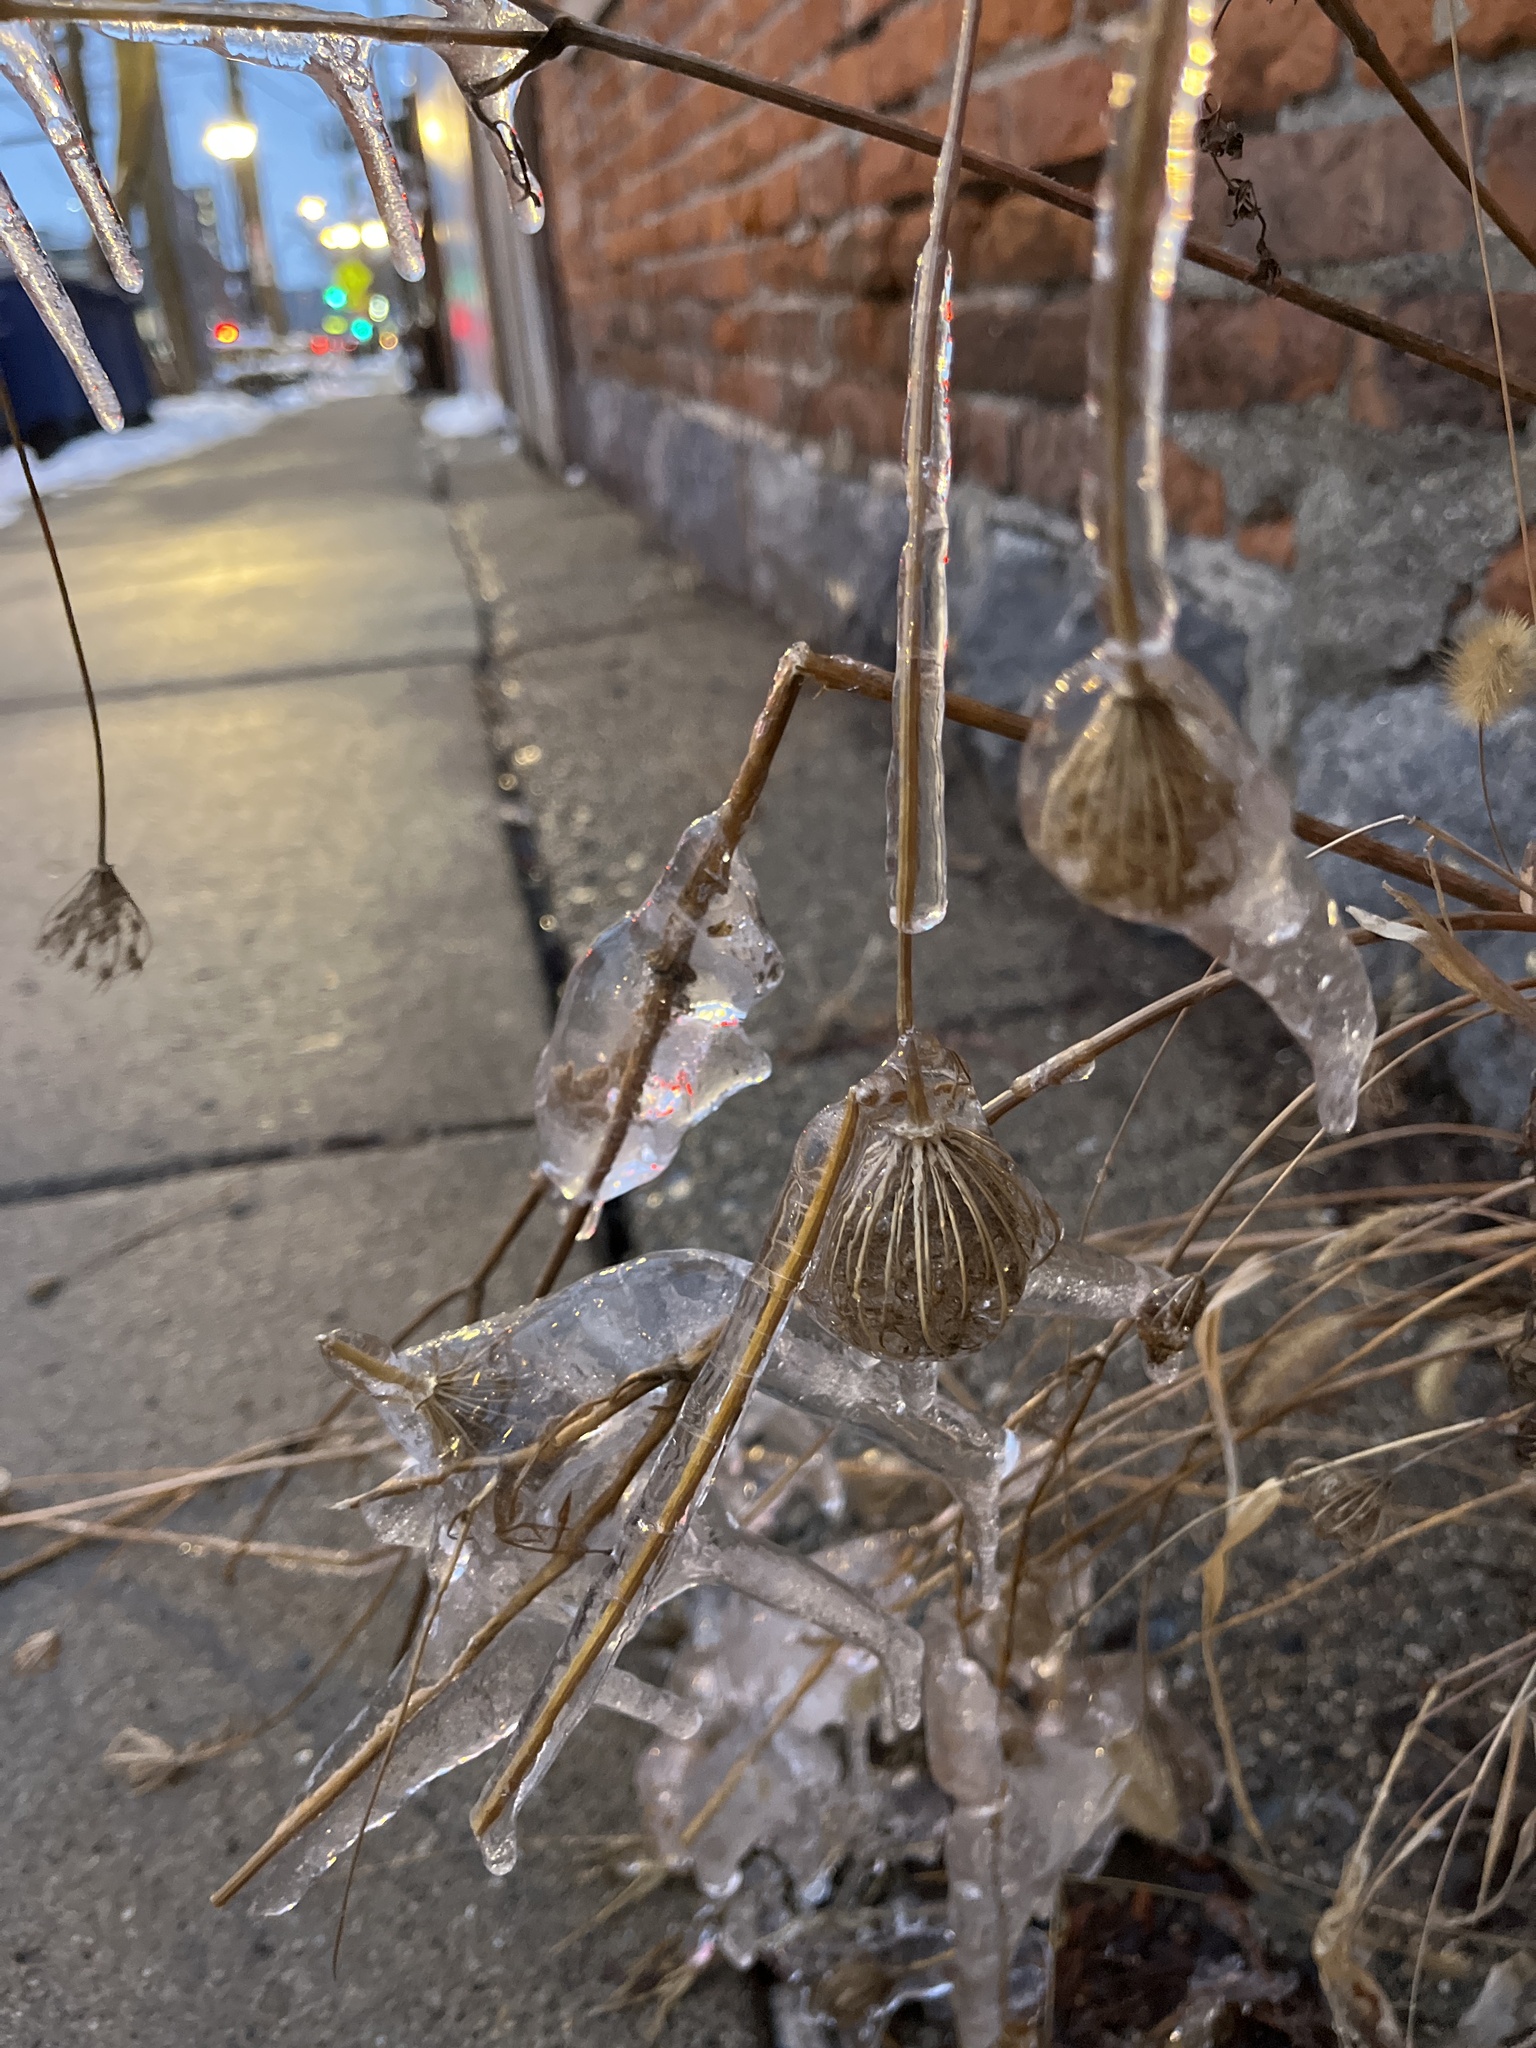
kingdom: Plantae
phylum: Tracheophyta
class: Magnoliopsida
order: Apiales
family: Apiaceae
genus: Daucus
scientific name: Daucus carota
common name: Wild carrot
